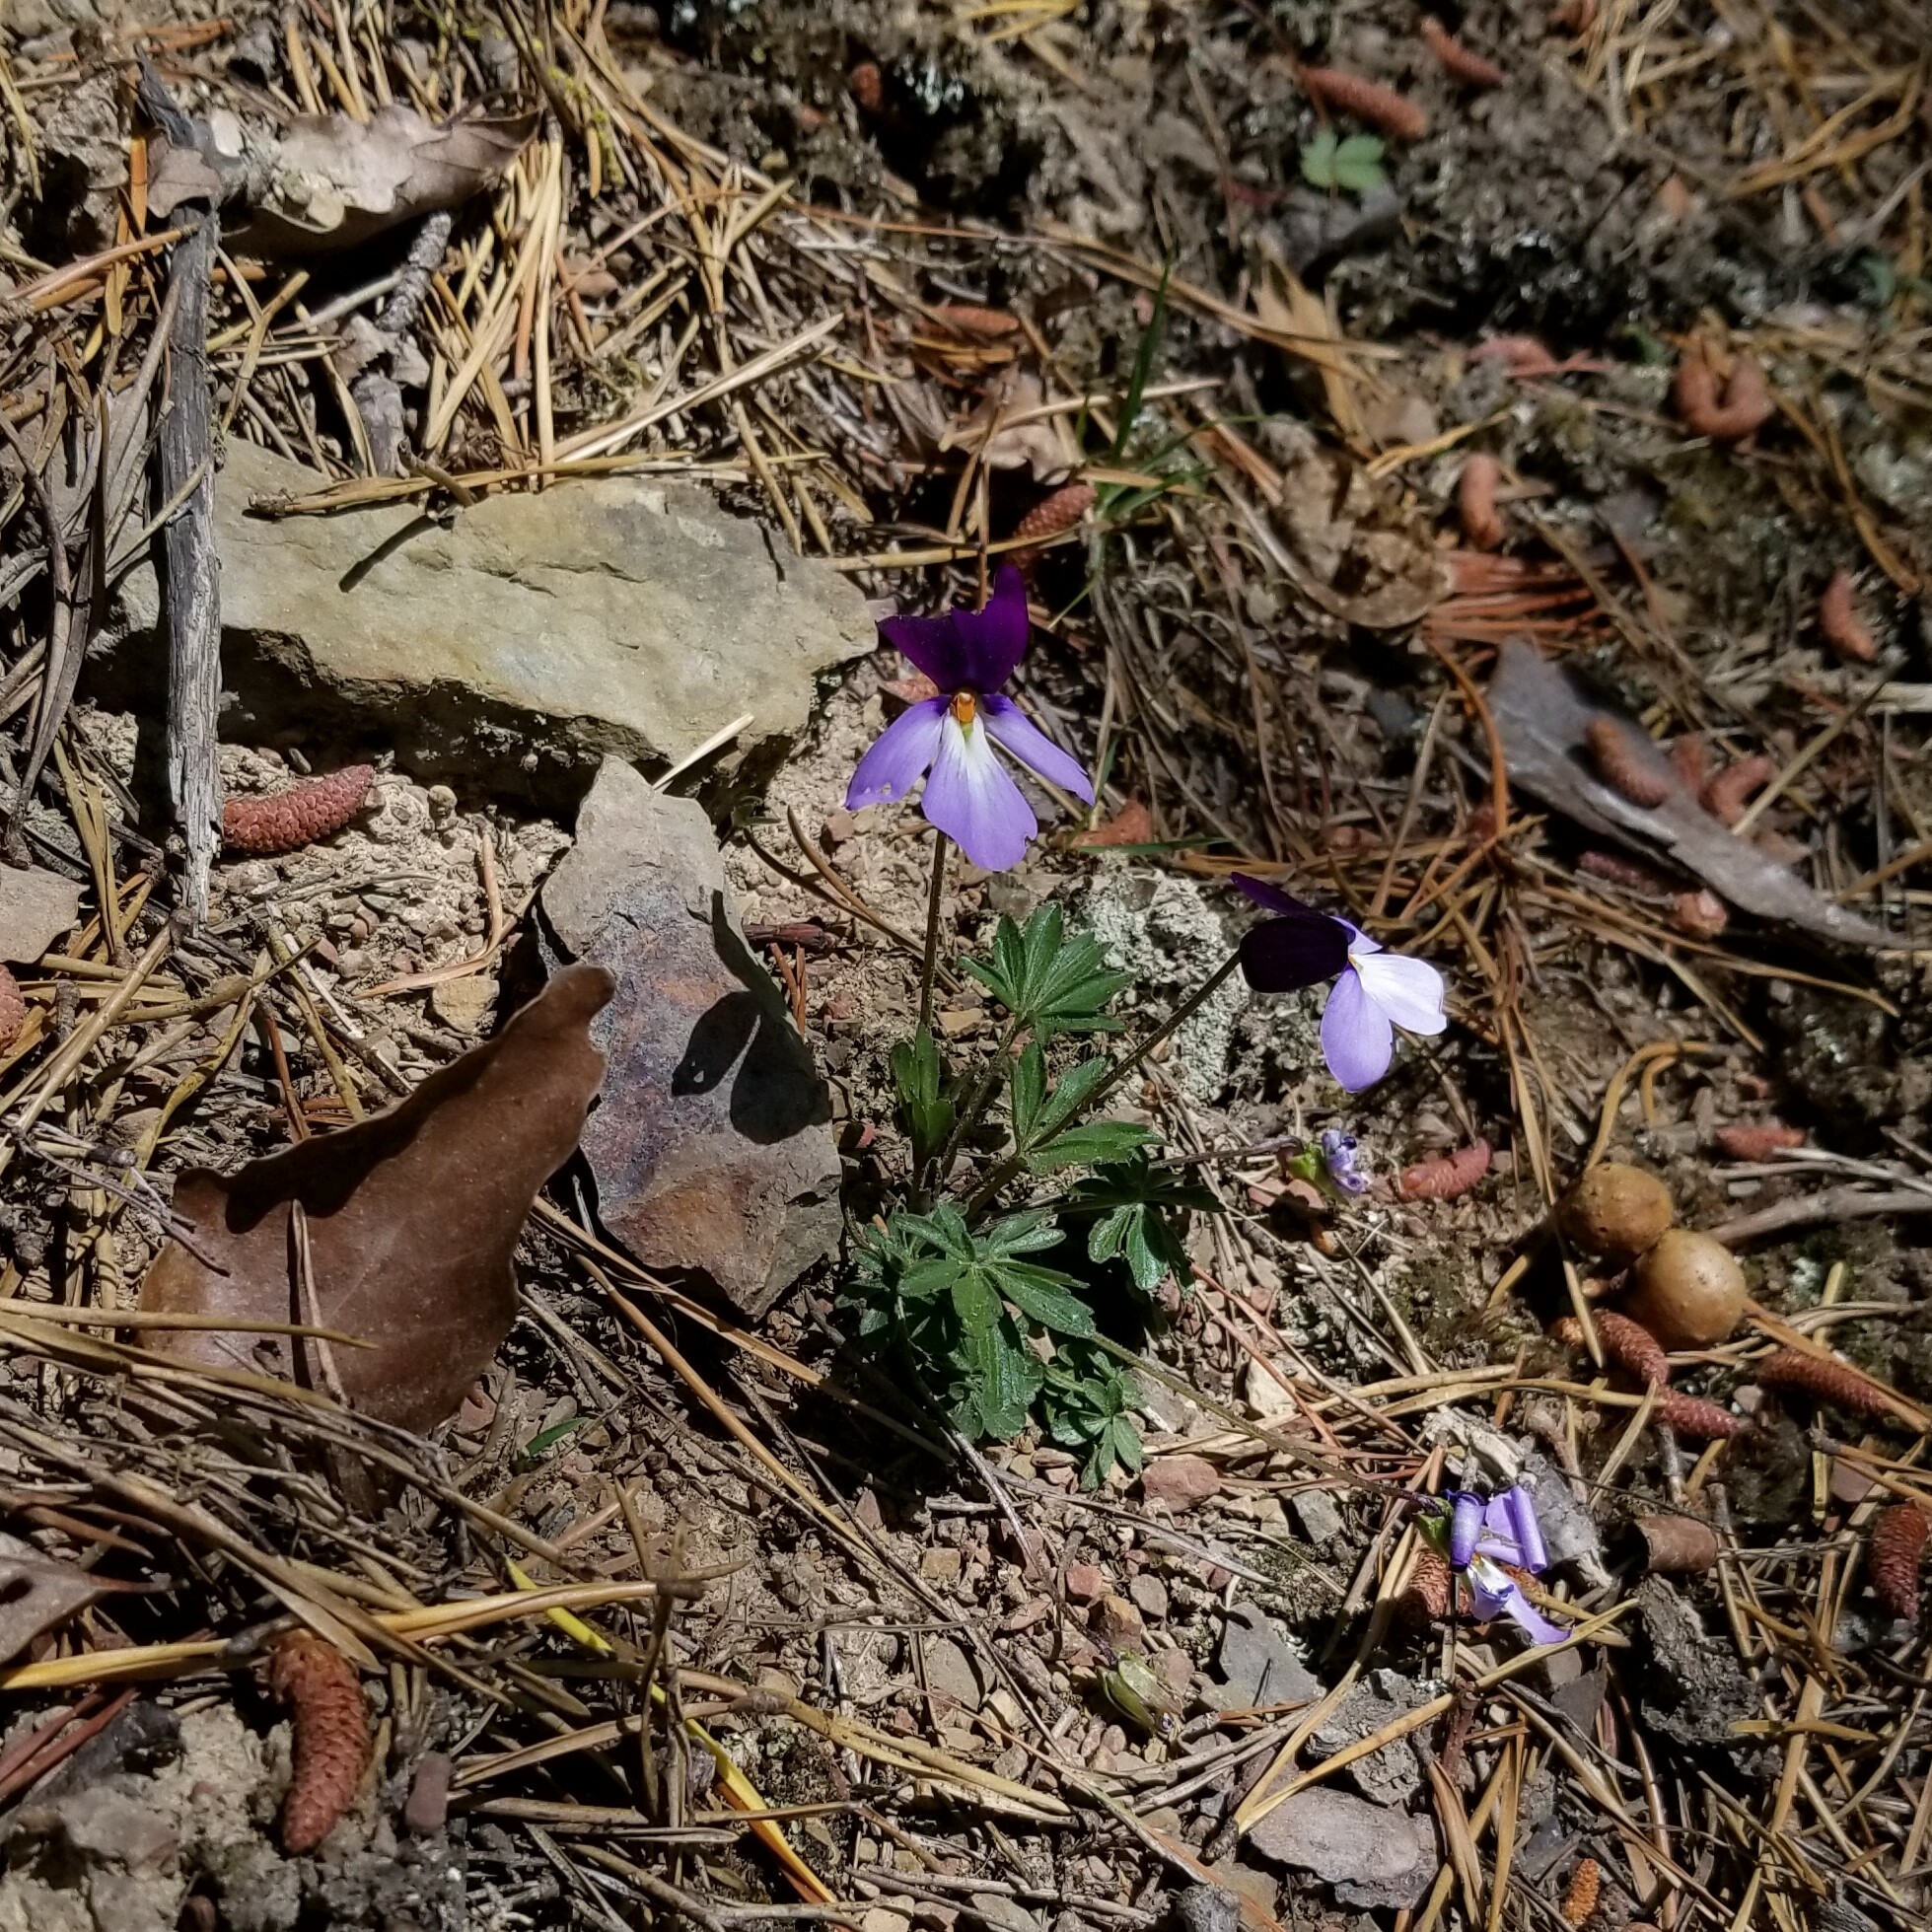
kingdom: Plantae
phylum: Tracheophyta
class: Magnoliopsida
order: Malpighiales
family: Violaceae
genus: Viola
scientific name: Viola pedata
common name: Pansy violet
